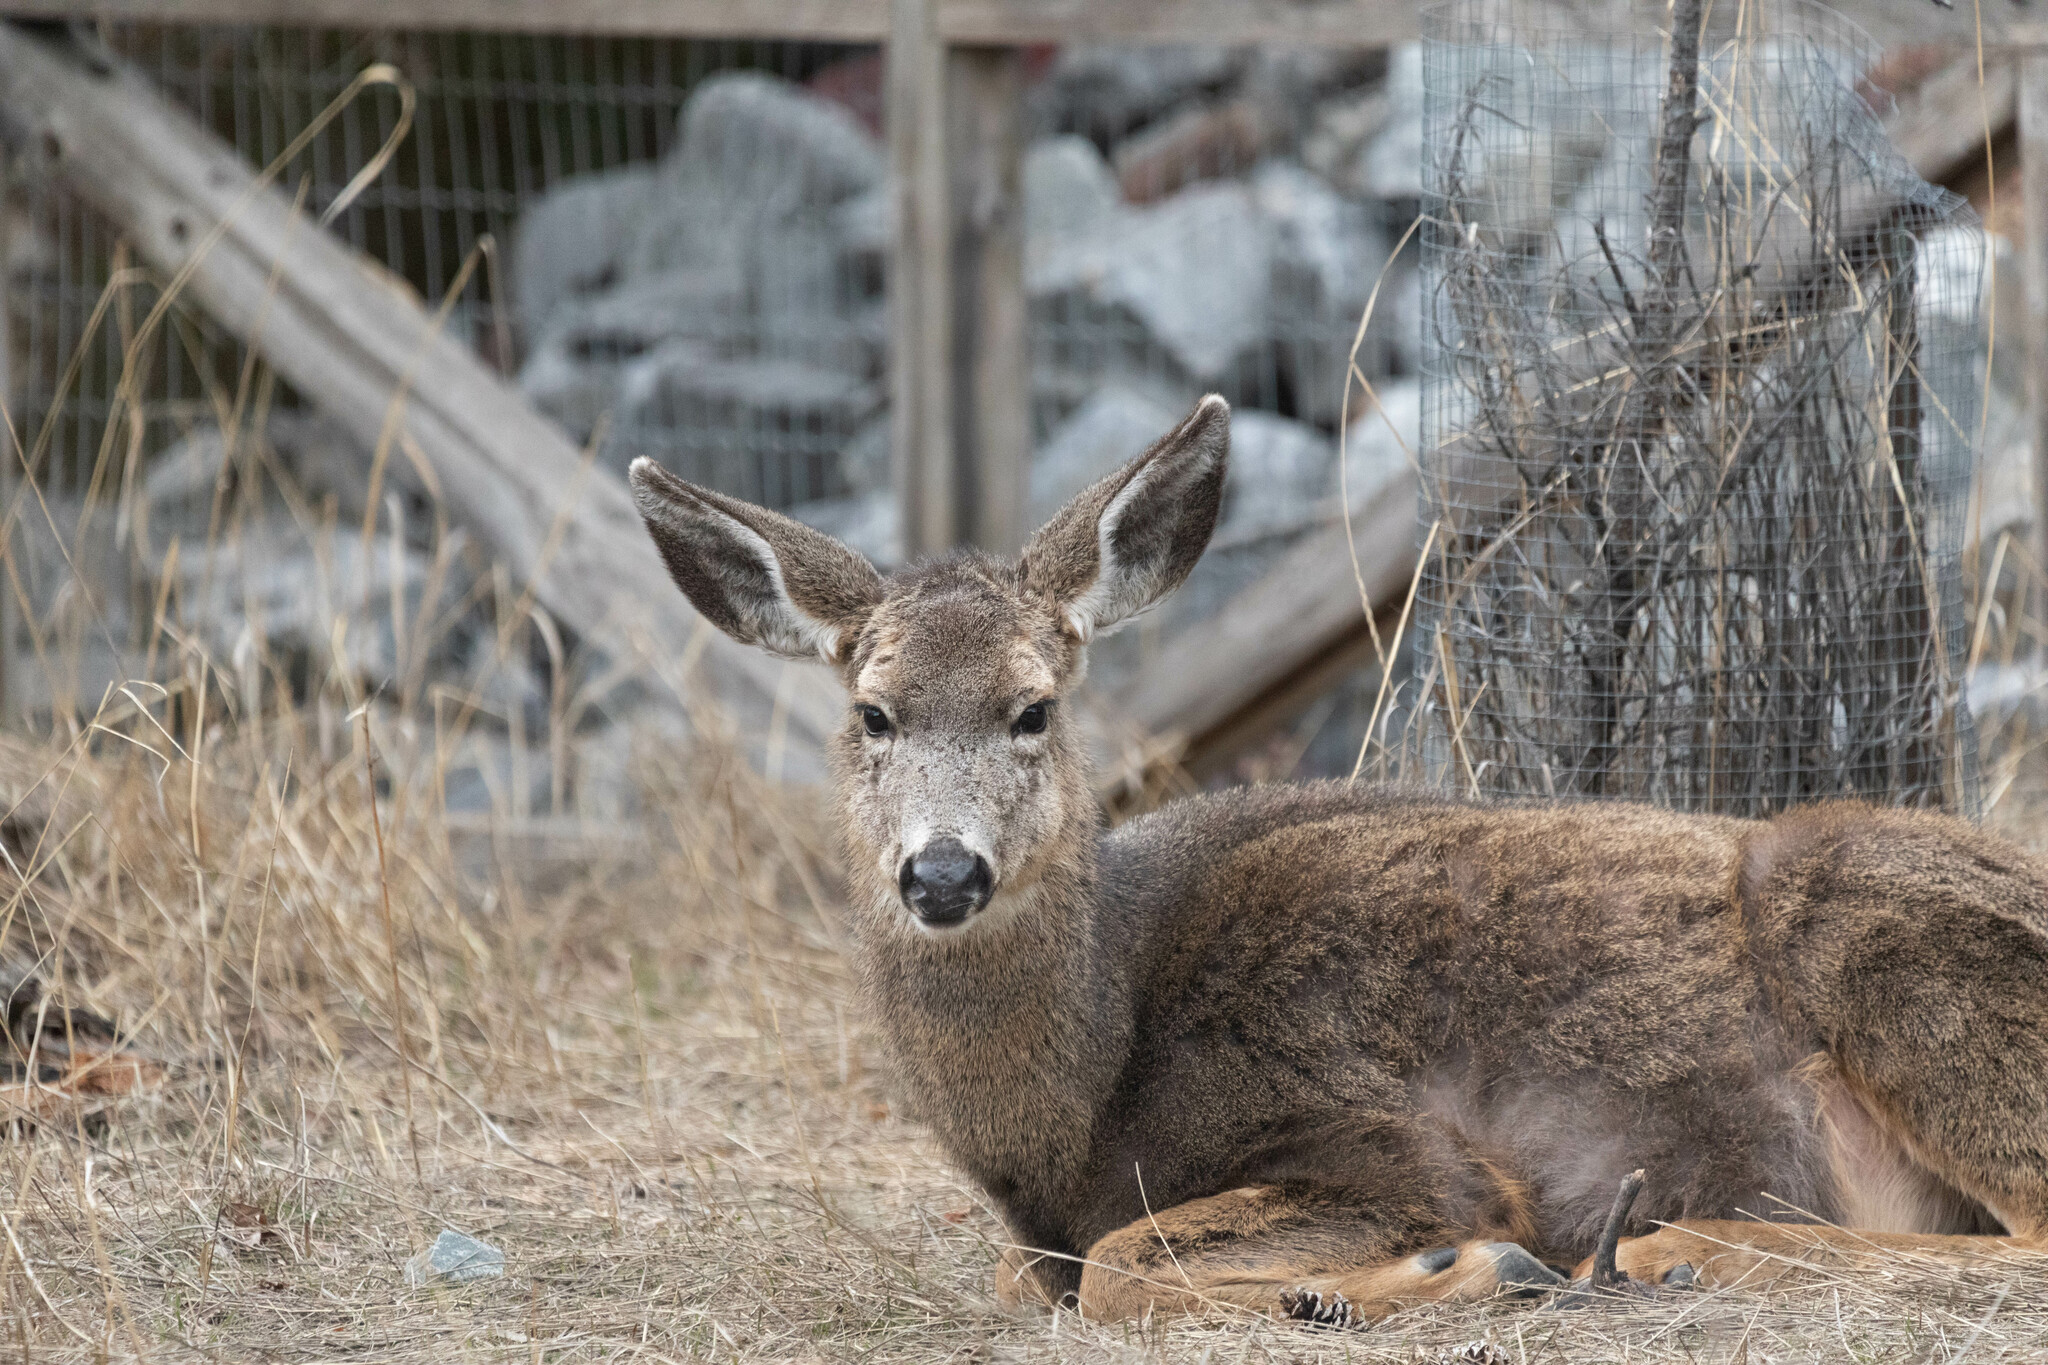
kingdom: Animalia
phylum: Chordata
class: Mammalia
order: Artiodactyla
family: Cervidae
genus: Odocoileus
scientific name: Odocoileus hemionus
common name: Mule deer
